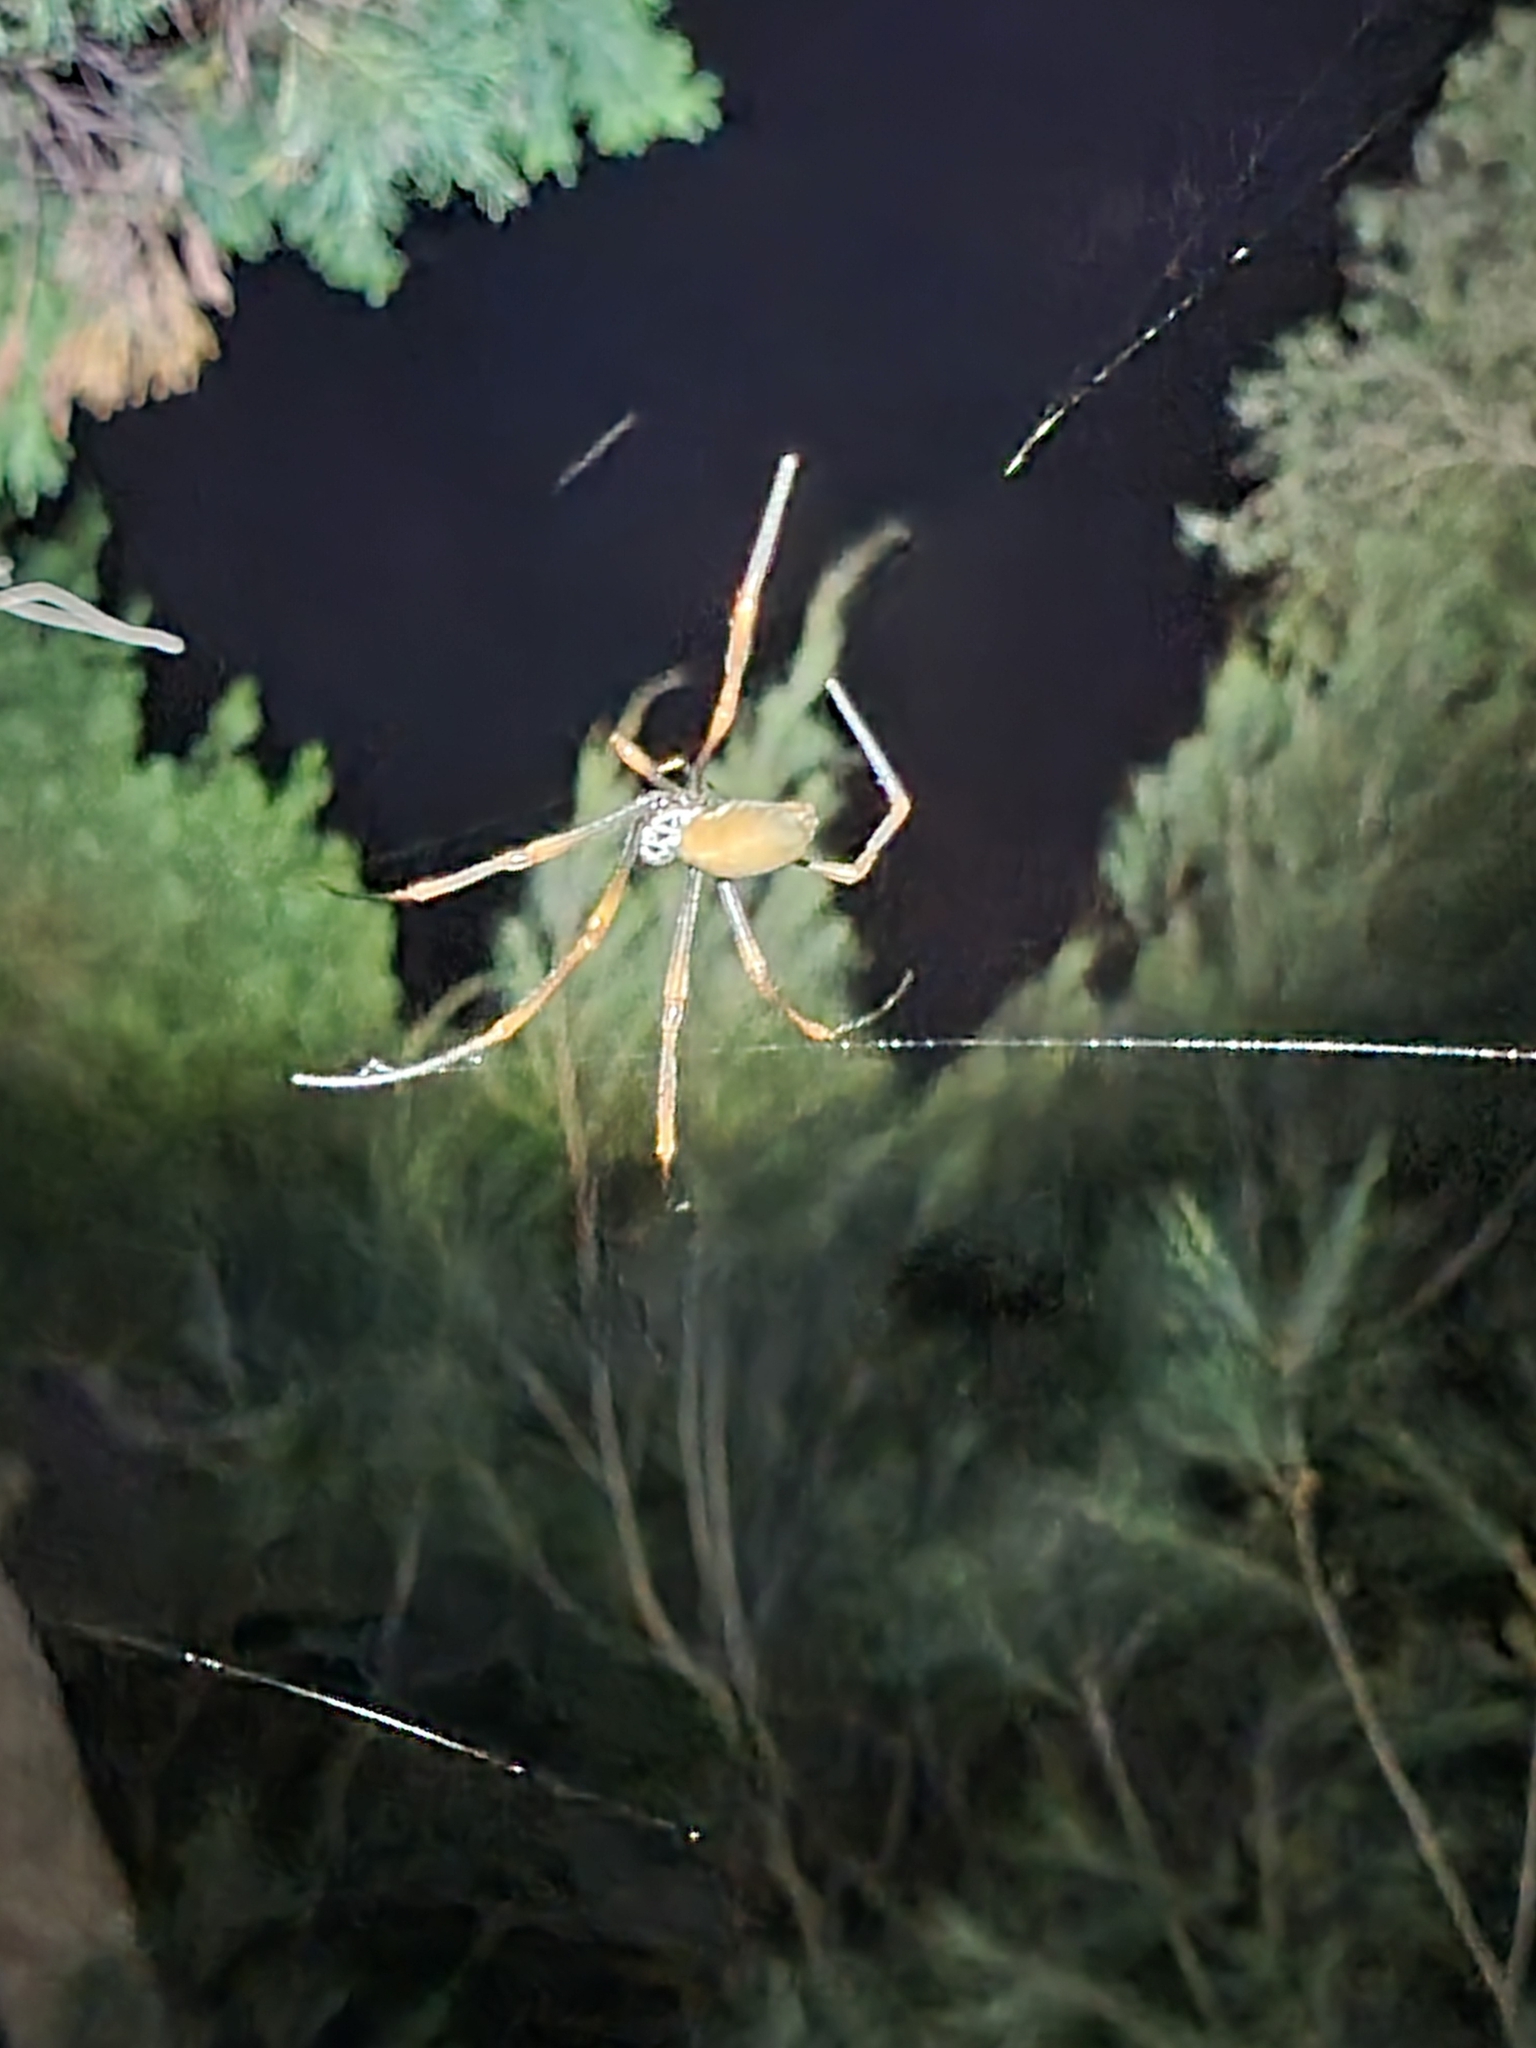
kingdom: Animalia
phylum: Arthropoda
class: Arachnida
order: Araneae
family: Araneidae
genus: Trichonephila
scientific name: Trichonephila plumipes
